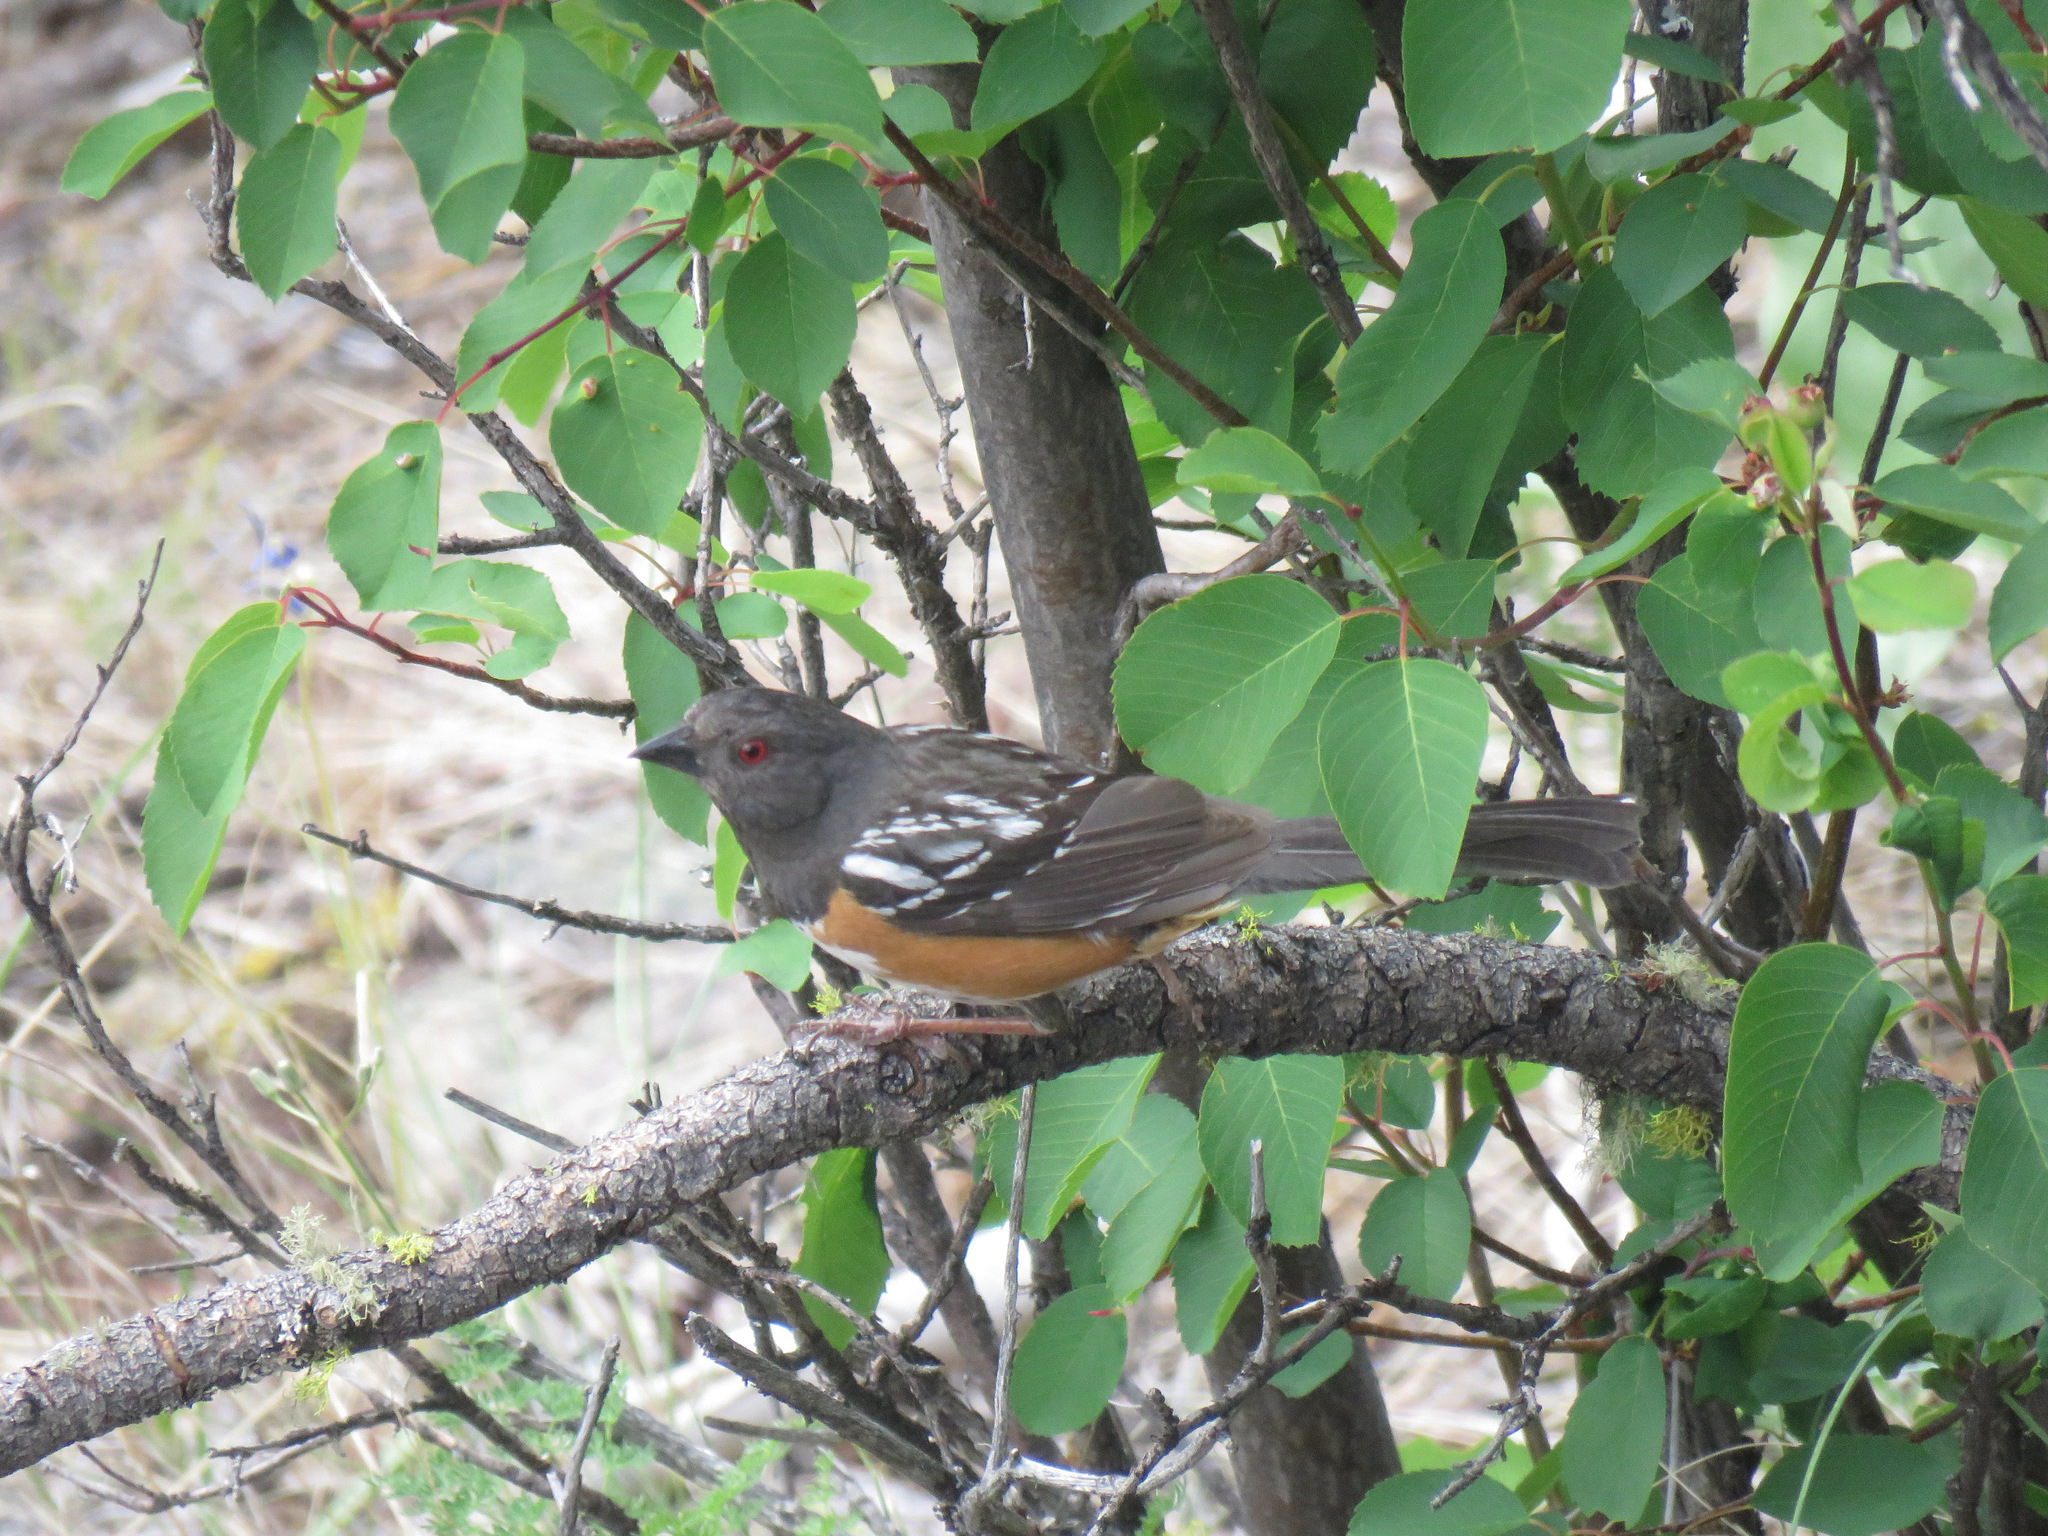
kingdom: Animalia
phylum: Chordata
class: Aves
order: Passeriformes
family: Passerellidae
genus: Pipilo
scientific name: Pipilo maculatus
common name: Spotted towhee
